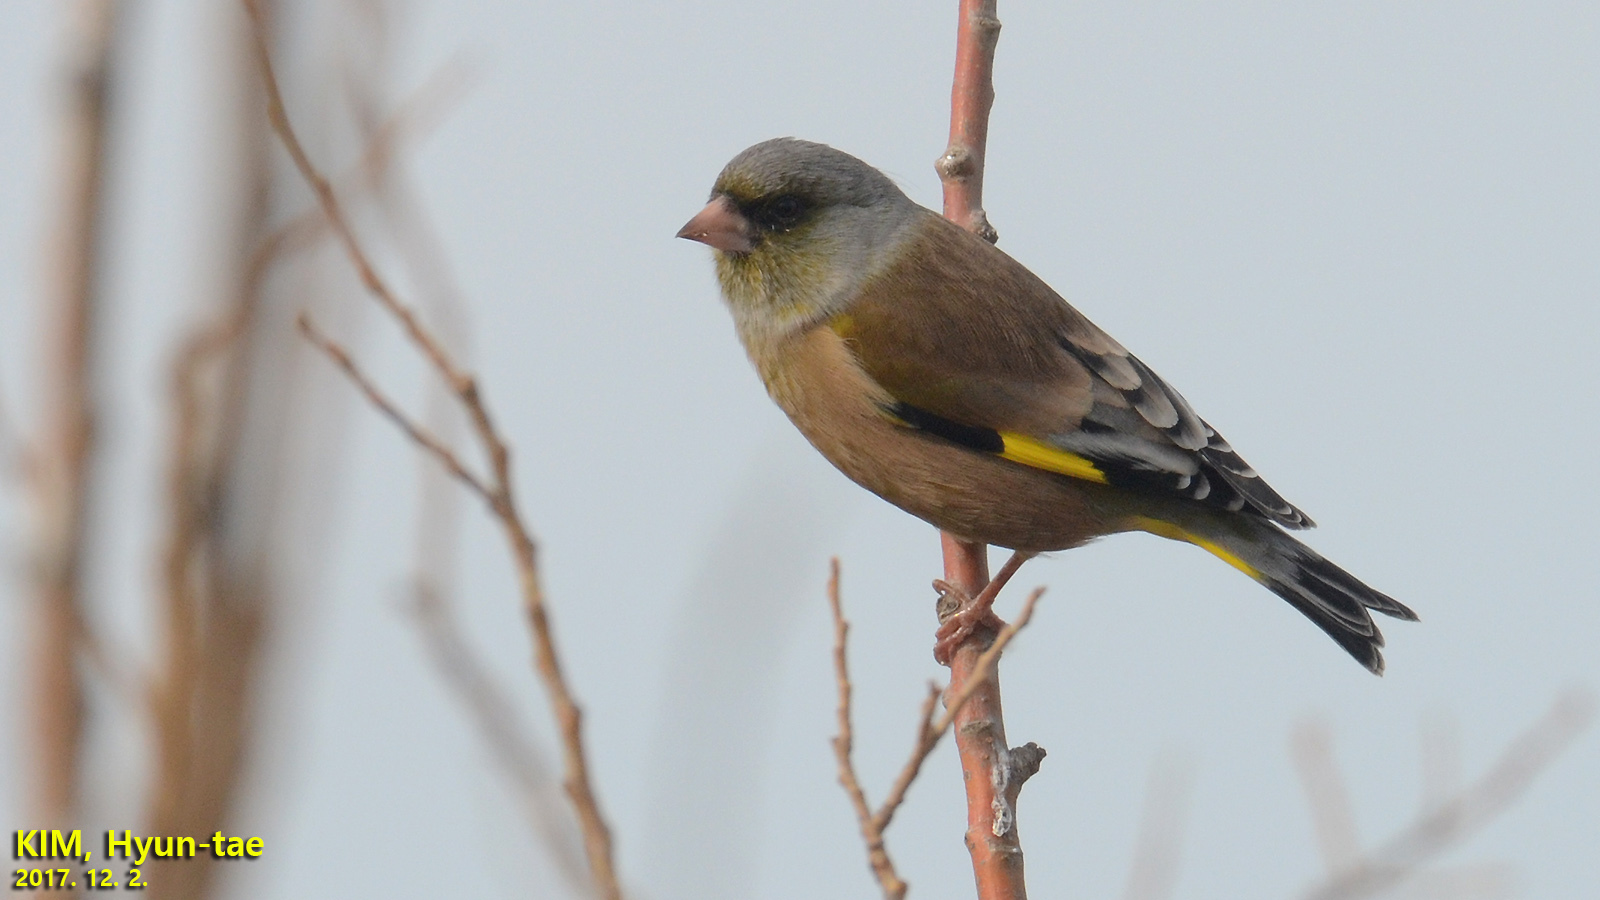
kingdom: Plantae
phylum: Tracheophyta
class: Liliopsida
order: Poales
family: Poaceae
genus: Chloris
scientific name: Chloris sinica
